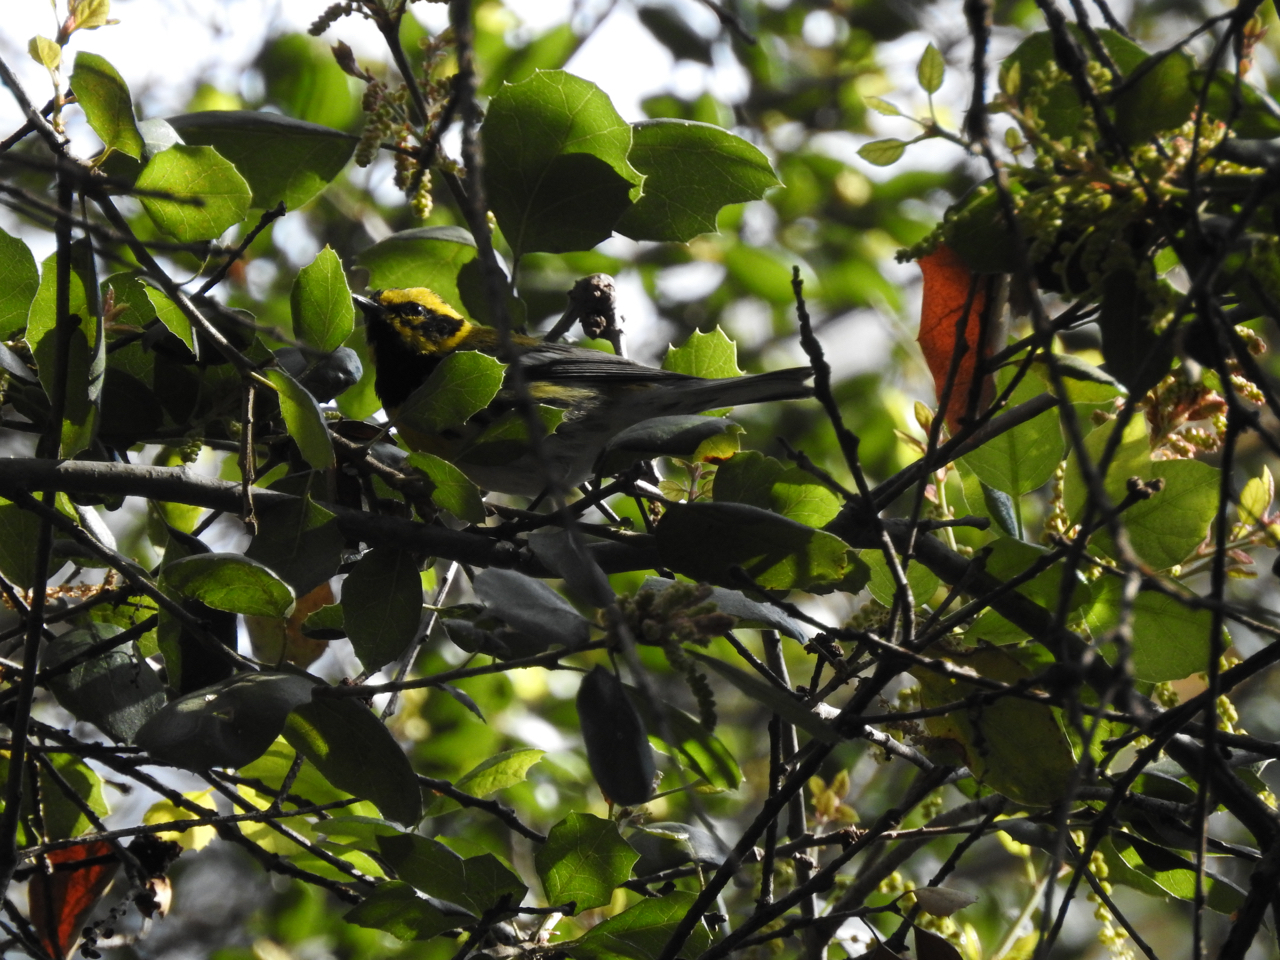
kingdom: Animalia
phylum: Chordata
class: Aves
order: Passeriformes
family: Parulidae
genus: Setophaga
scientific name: Setophaga townsendi
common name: Townsend's warbler
